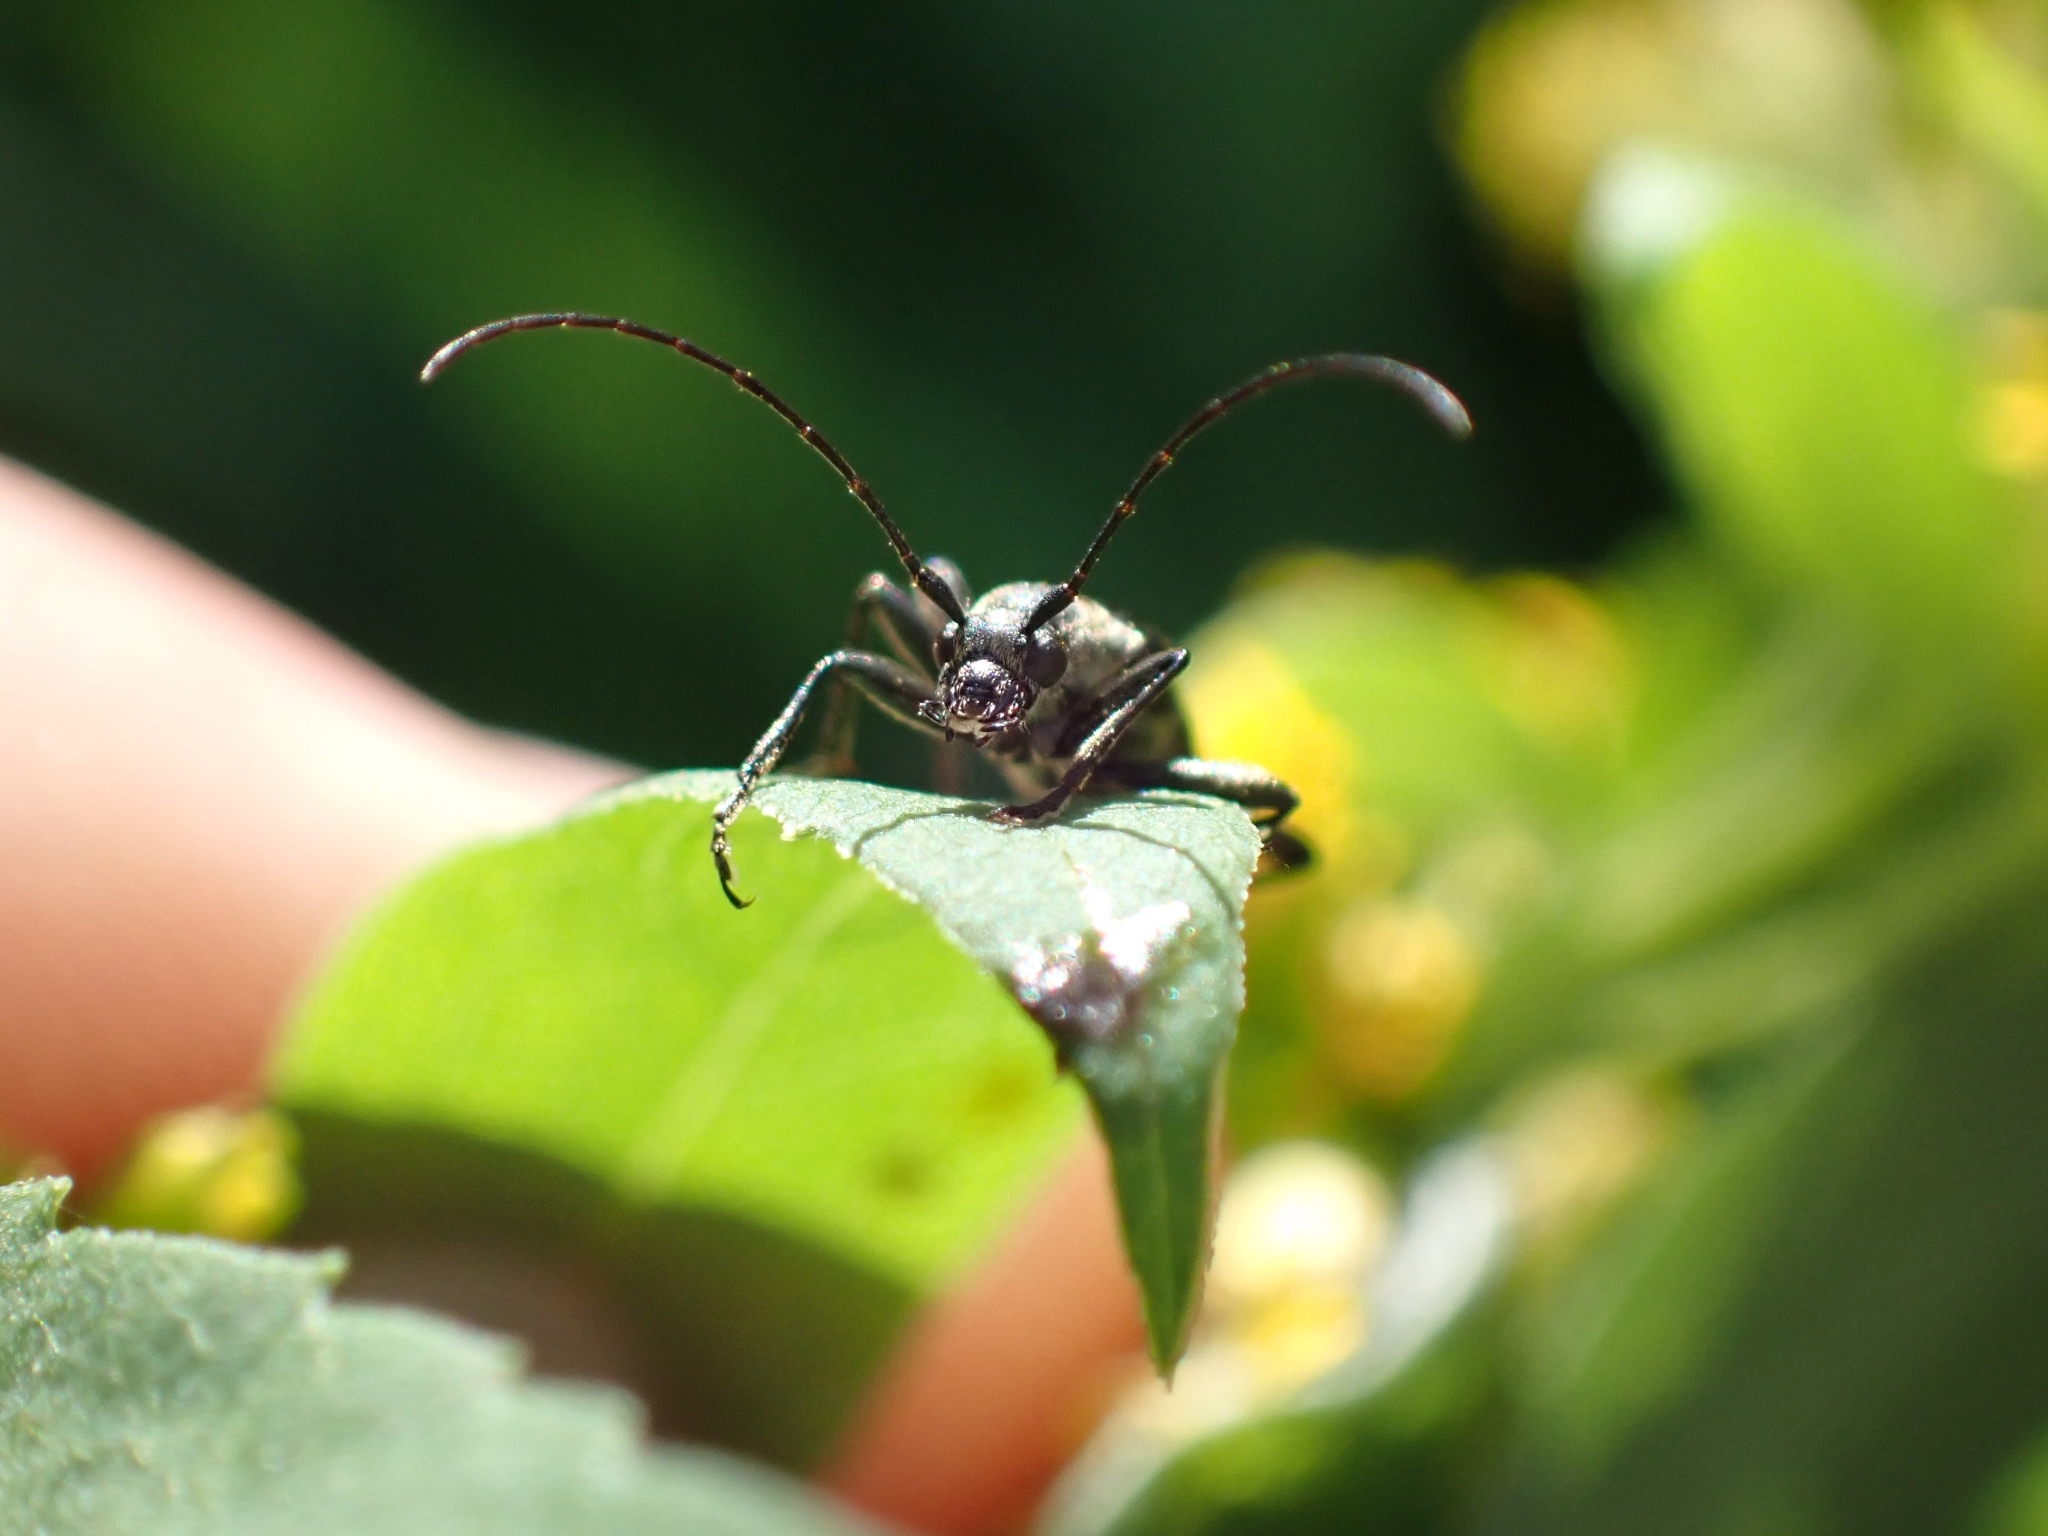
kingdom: Animalia
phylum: Arthropoda
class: Insecta
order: Coleoptera
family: Cerambycidae
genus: Grammoptera
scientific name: Grammoptera subargentata
